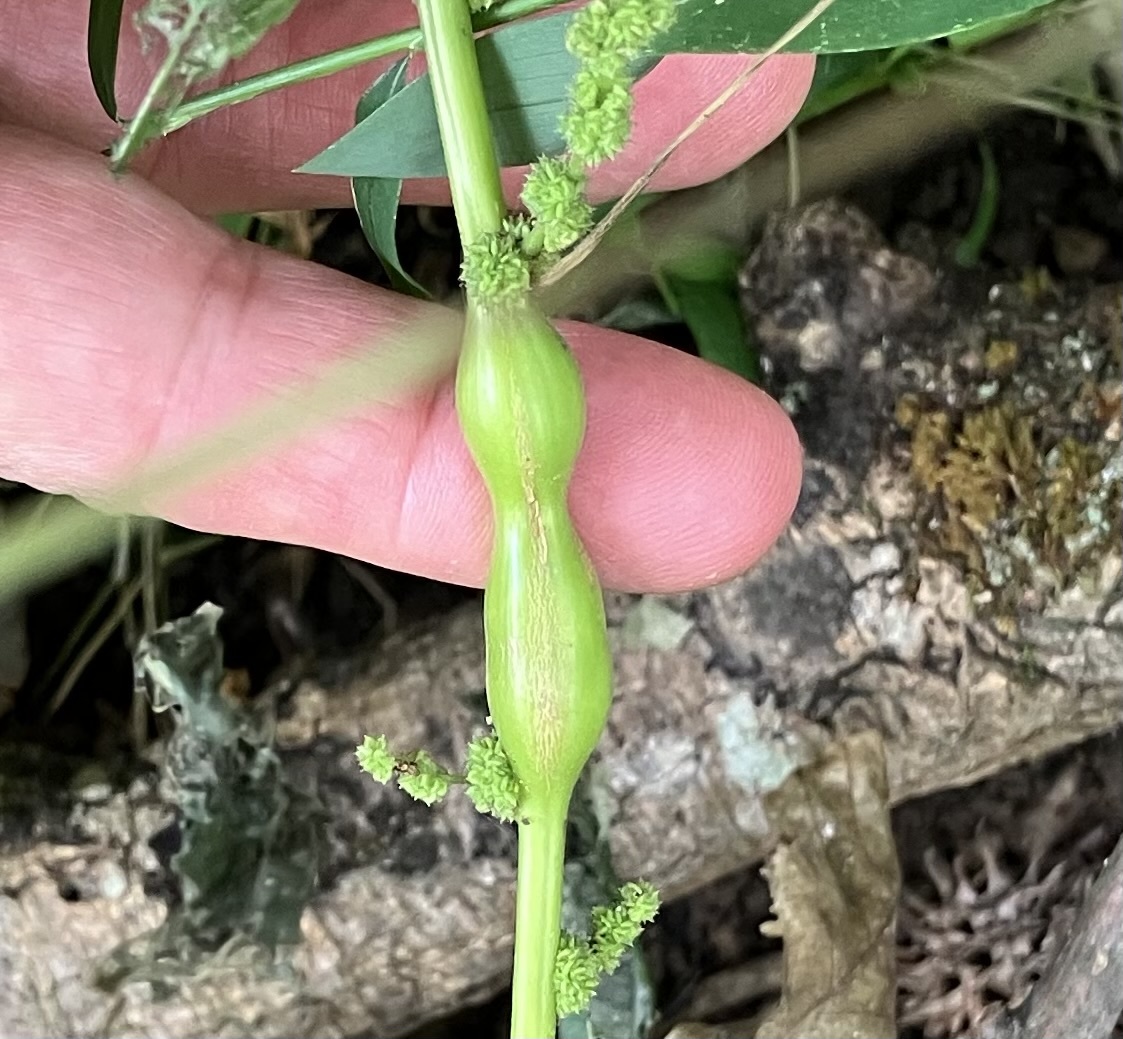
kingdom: Animalia
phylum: Arthropoda
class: Insecta
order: Diptera
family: Cecidomyiidae
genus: Neolasioptera
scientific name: Neolasioptera boehmeriae
